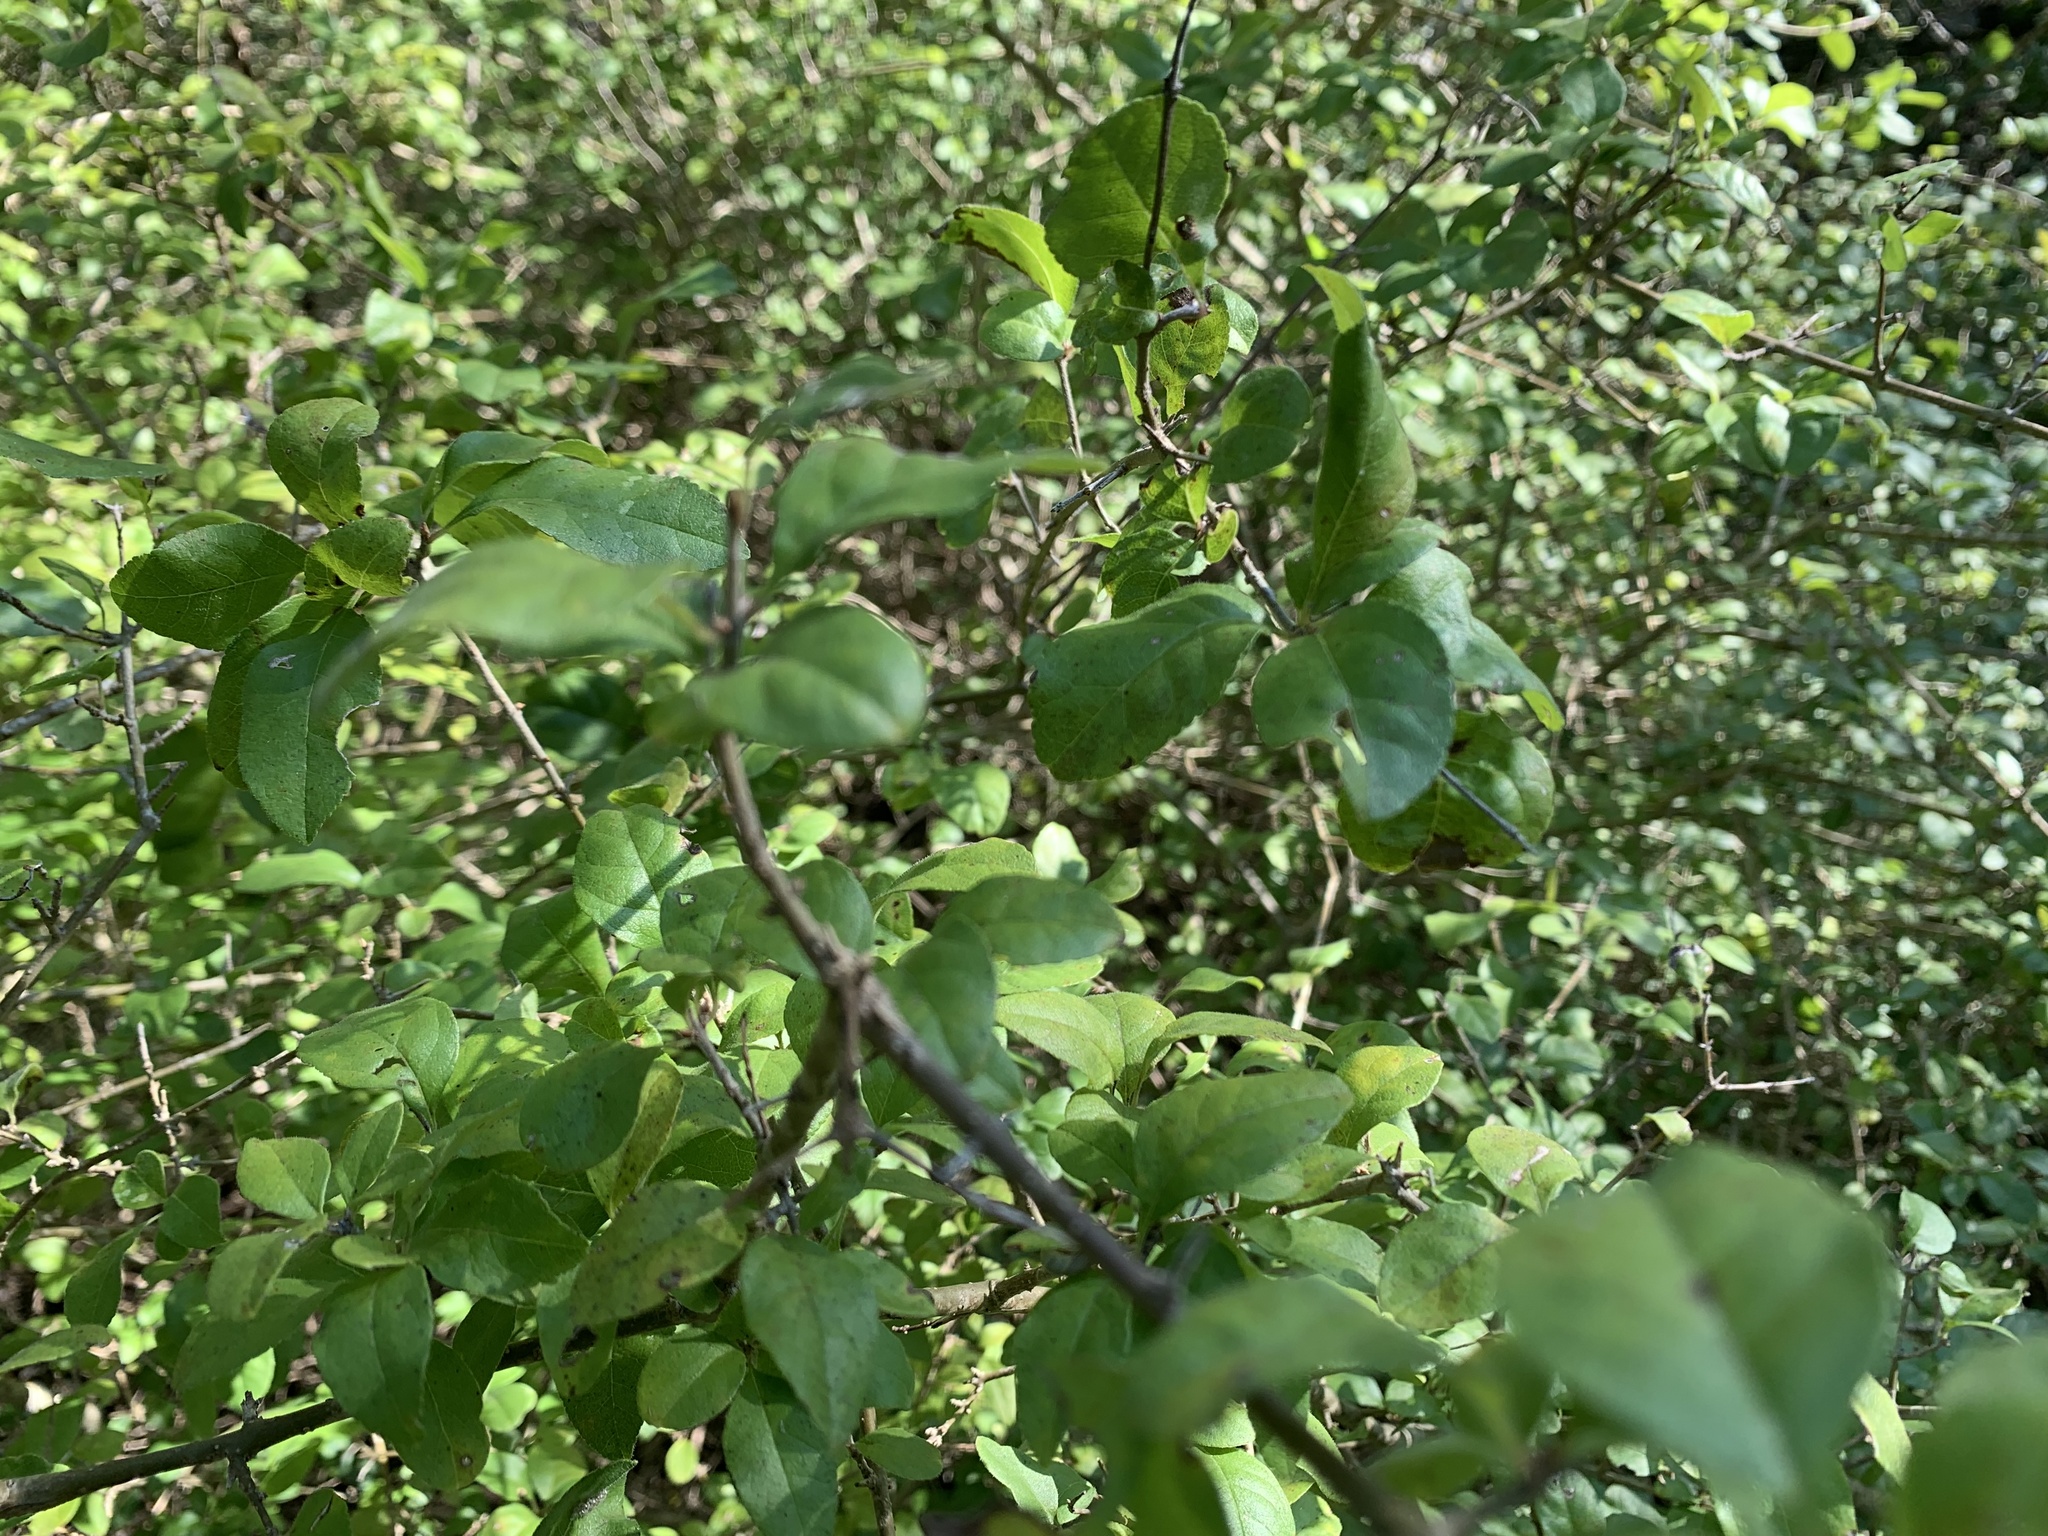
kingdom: Plantae
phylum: Tracheophyta
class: Magnoliopsida
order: Lamiales
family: Oleaceae
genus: Forestiera
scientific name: Forestiera pubescens
